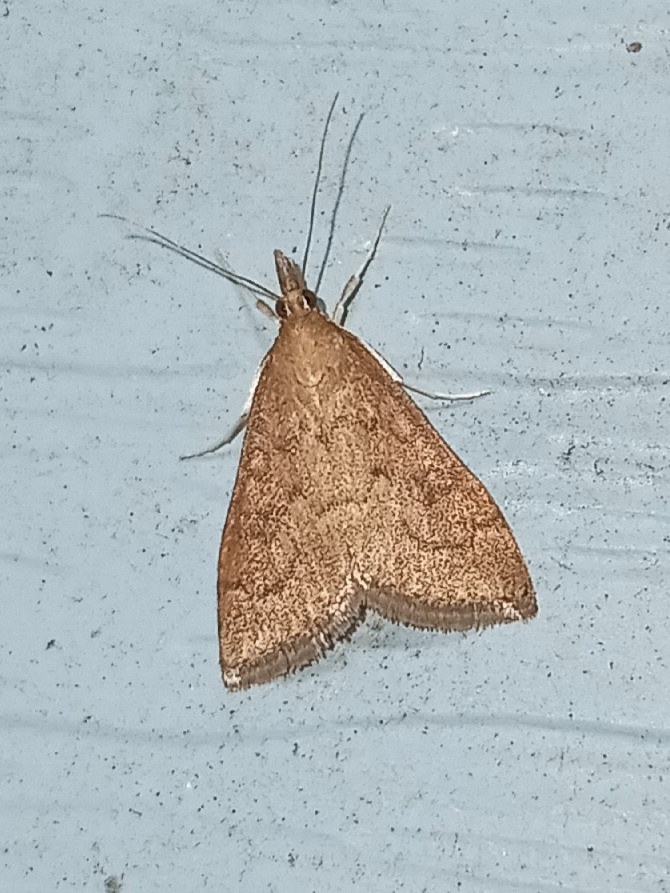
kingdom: Animalia
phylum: Arthropoda
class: Insecta
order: Lepidoptera
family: Crambidae
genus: Udea
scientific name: Udea rubigalis
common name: Celery leaftier moth
